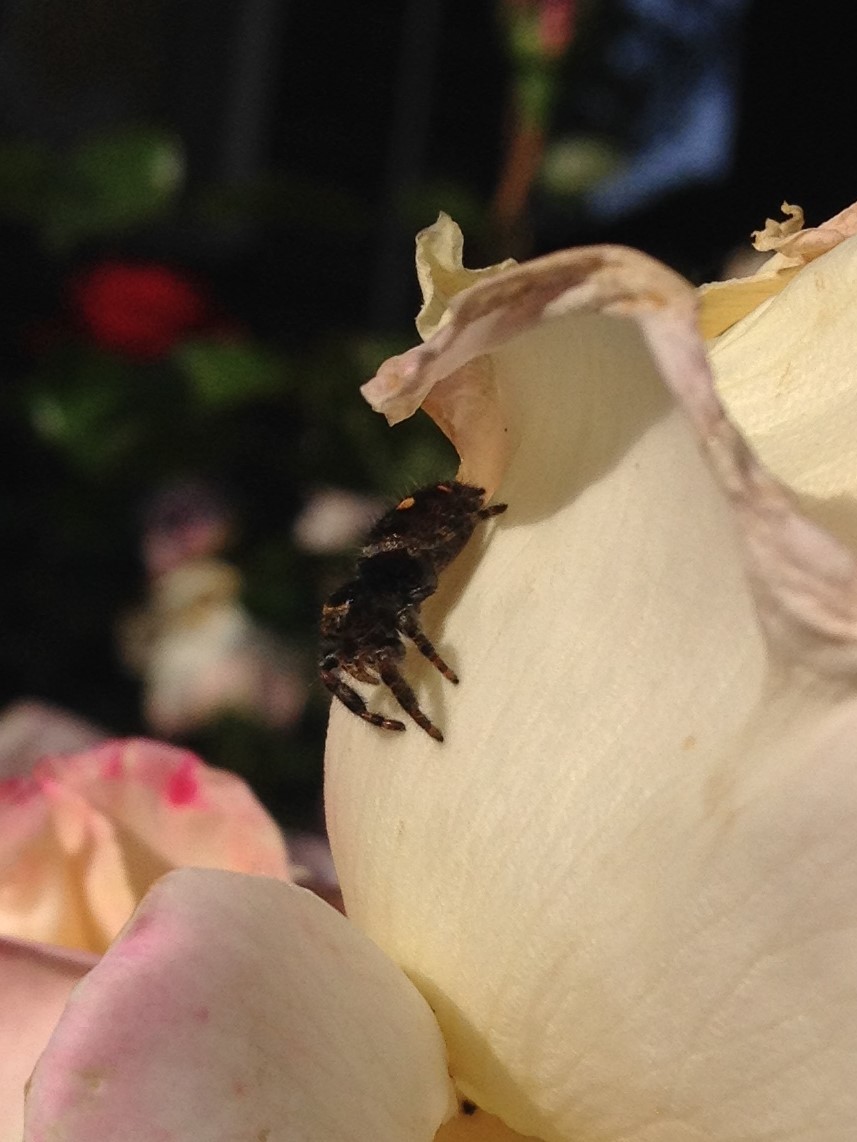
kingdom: Animalia
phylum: Arthropoda
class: Arachnida
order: Araneae
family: Salticidae
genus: Phidippus
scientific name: Phidippus audax
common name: Bold jumper
